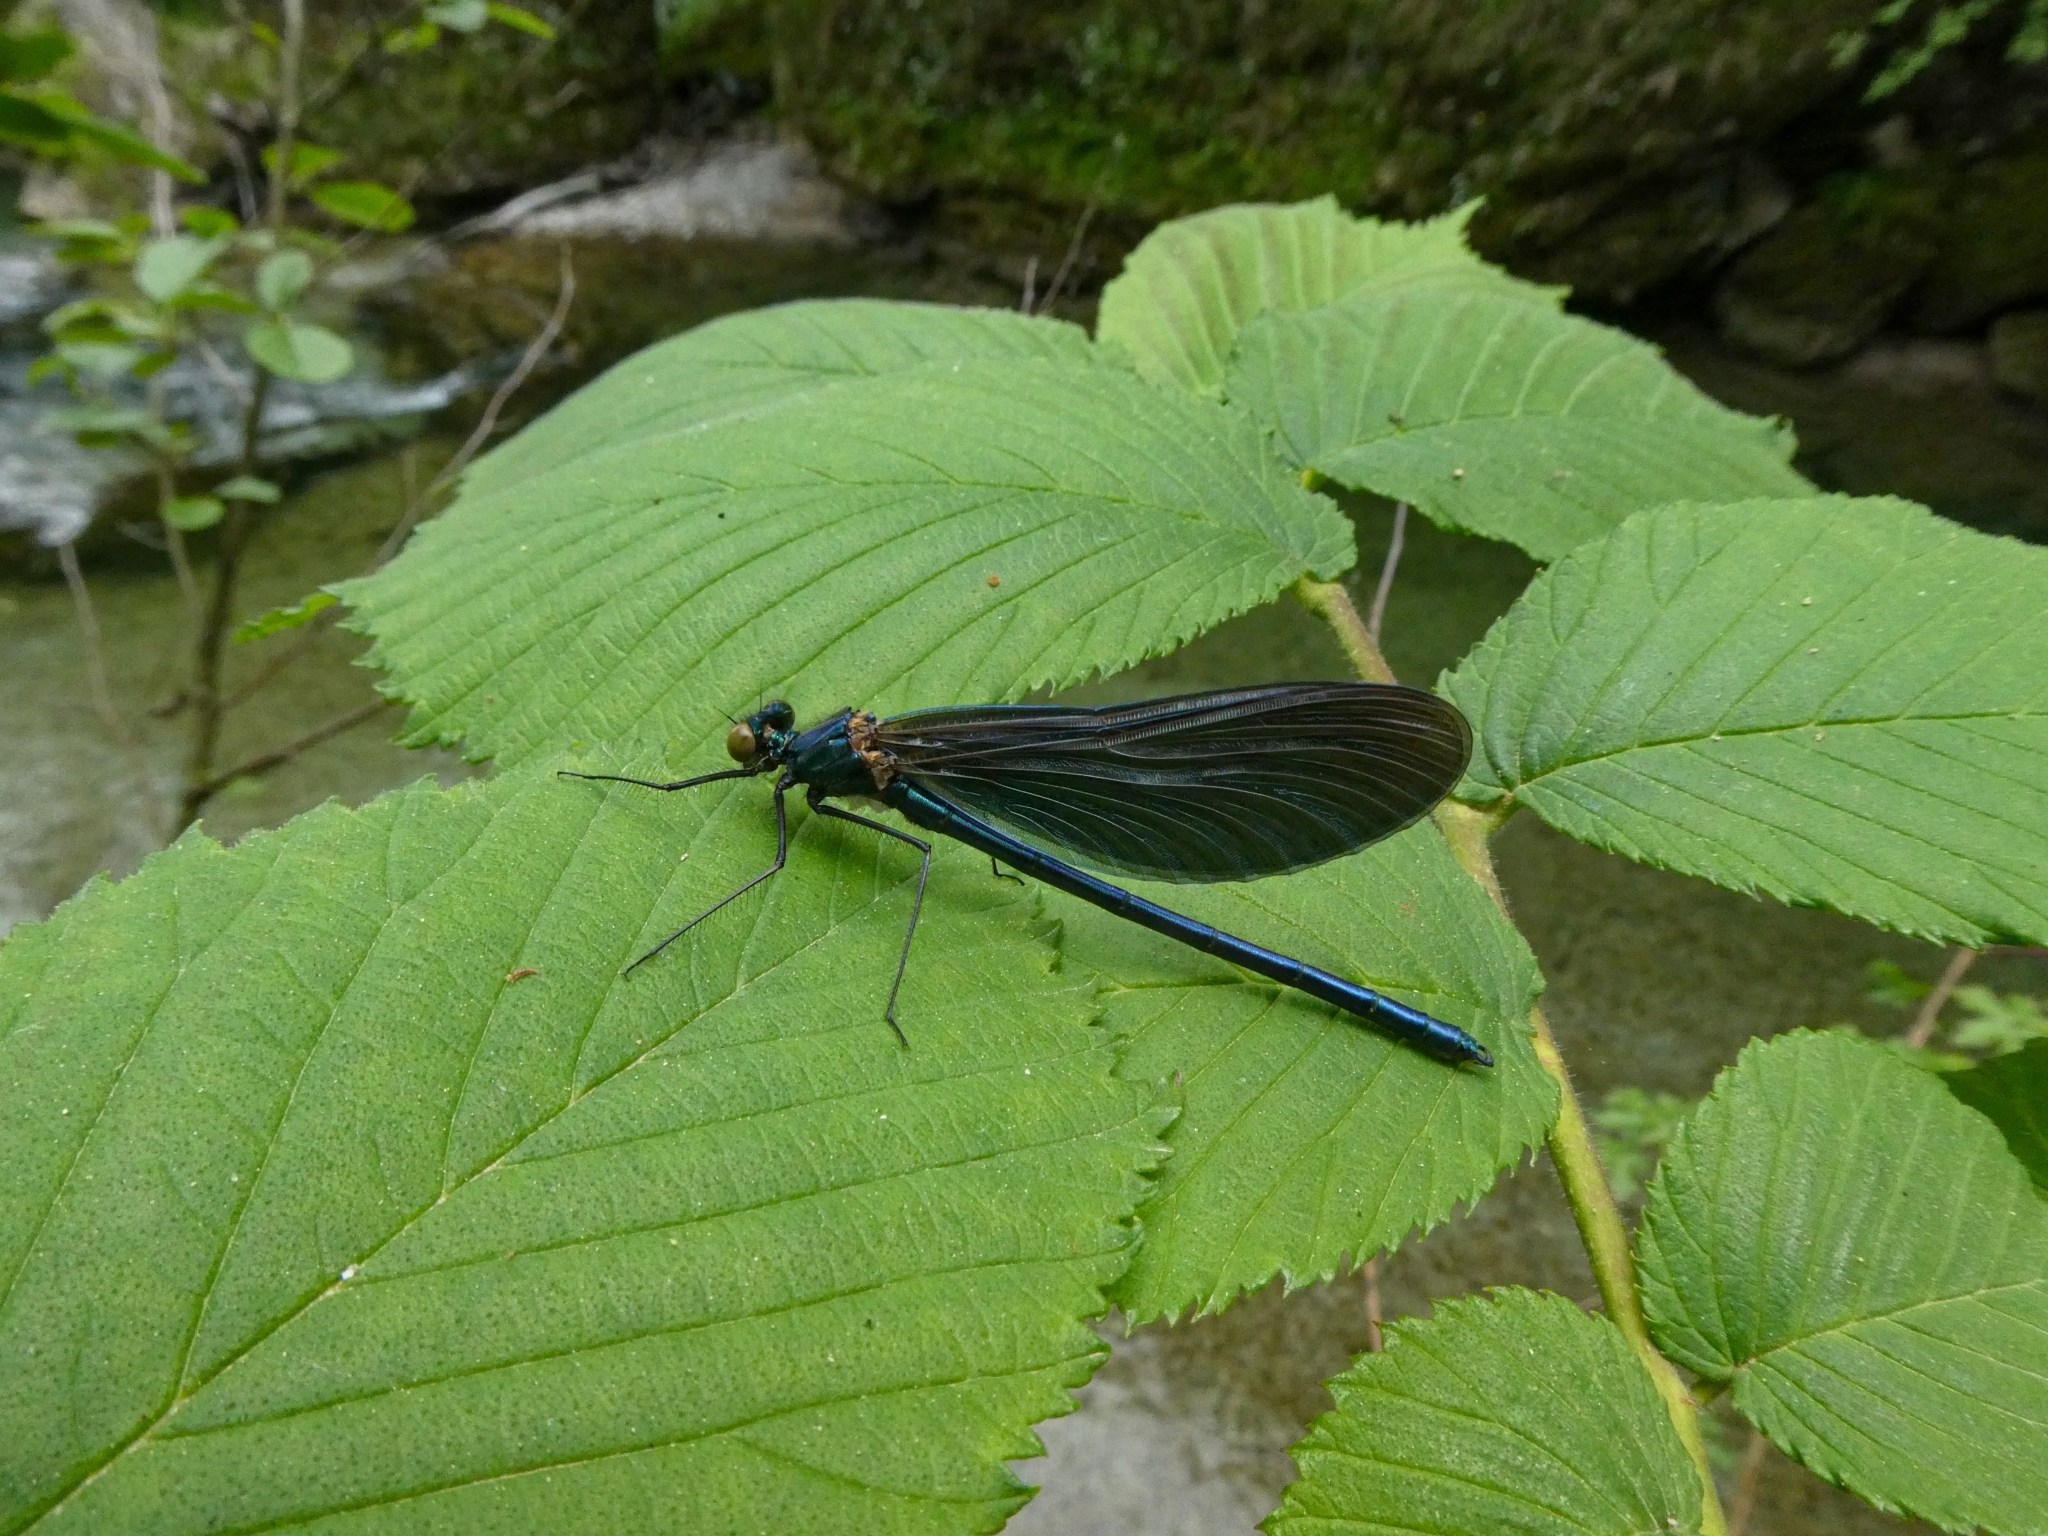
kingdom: Animalia
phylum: Arthropoda
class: Insecta
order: Odonata
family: Calopterygidae
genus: Calopteryx
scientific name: Calopteryx virgo
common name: Beautiful demoiselle
